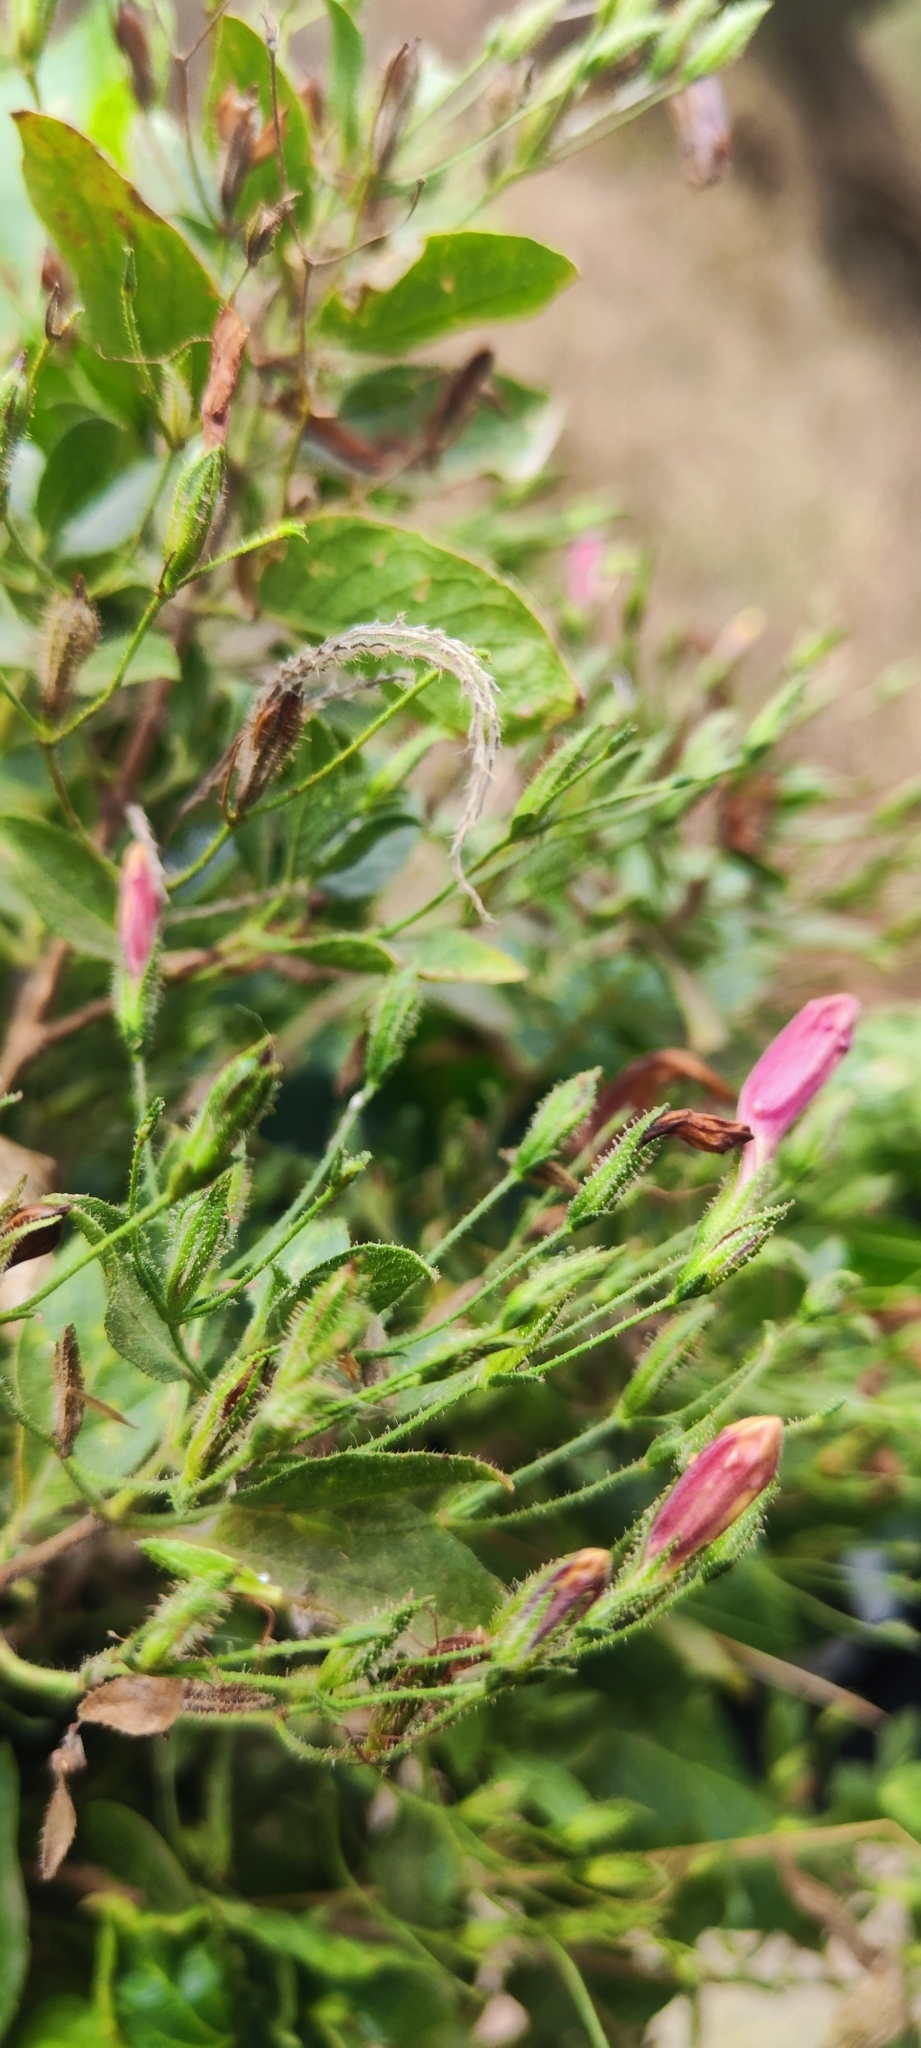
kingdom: Plantae
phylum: Tracheophyta
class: Magnoliopsida
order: Lamiales
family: Acanthaceae
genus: Ruellia
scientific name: Ruellia floribunda
